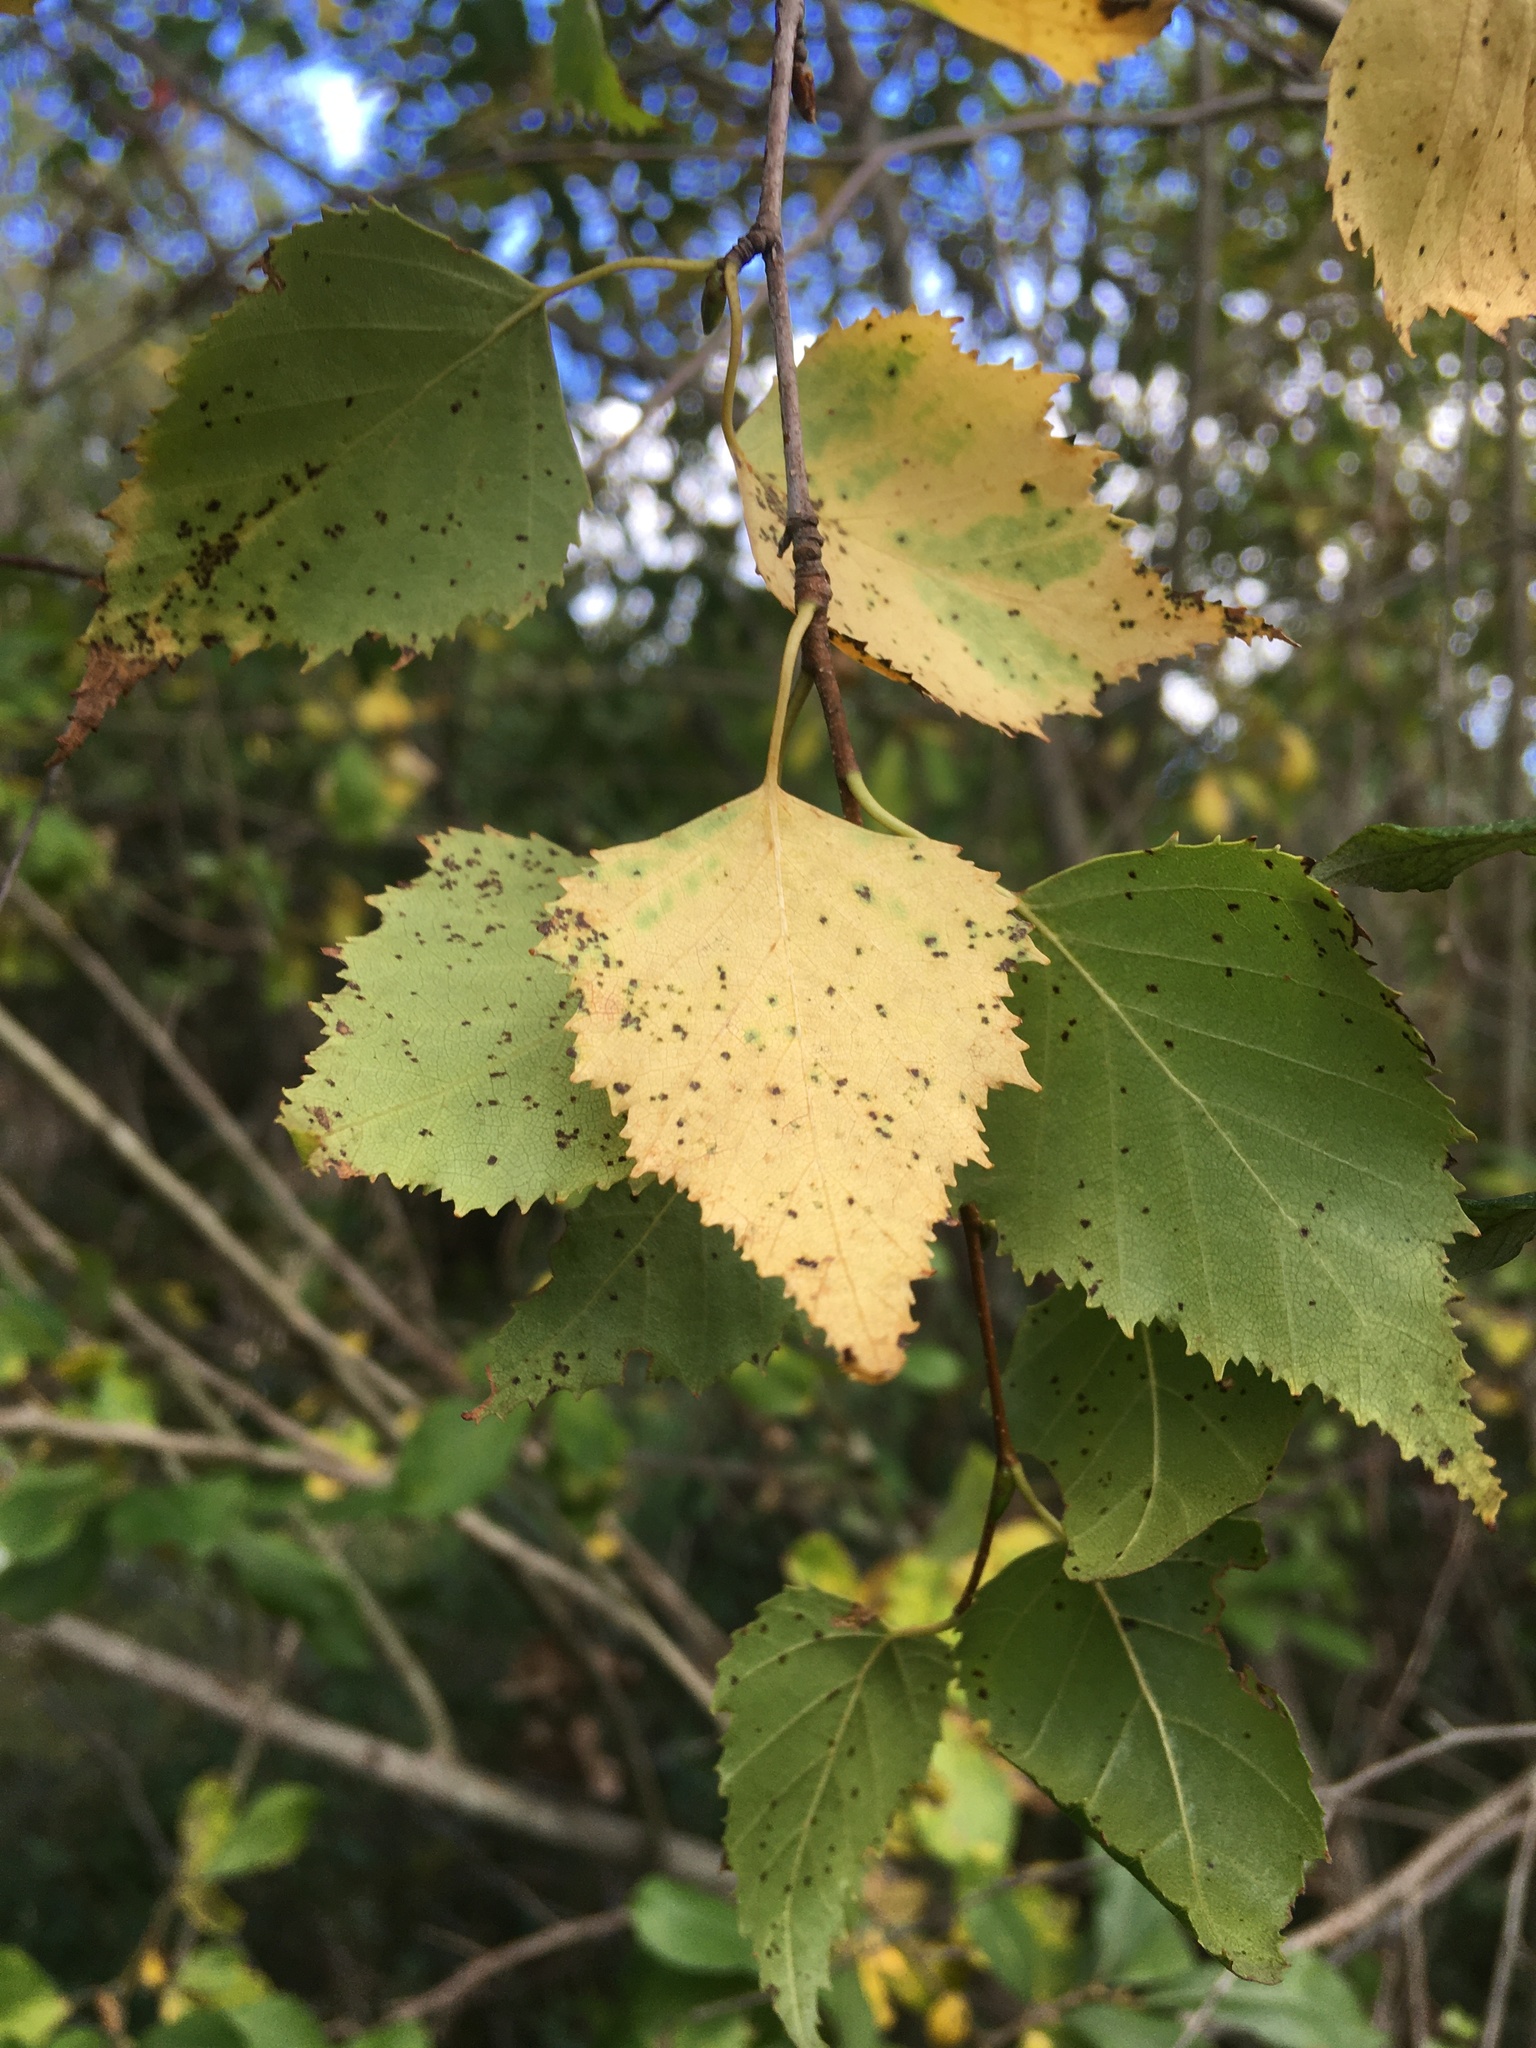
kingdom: Plantae
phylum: Tracheophyta
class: Magnoliopsida
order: Fagales
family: Betulaceae
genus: Betula
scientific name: Betula populifolia
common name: Fire birch
